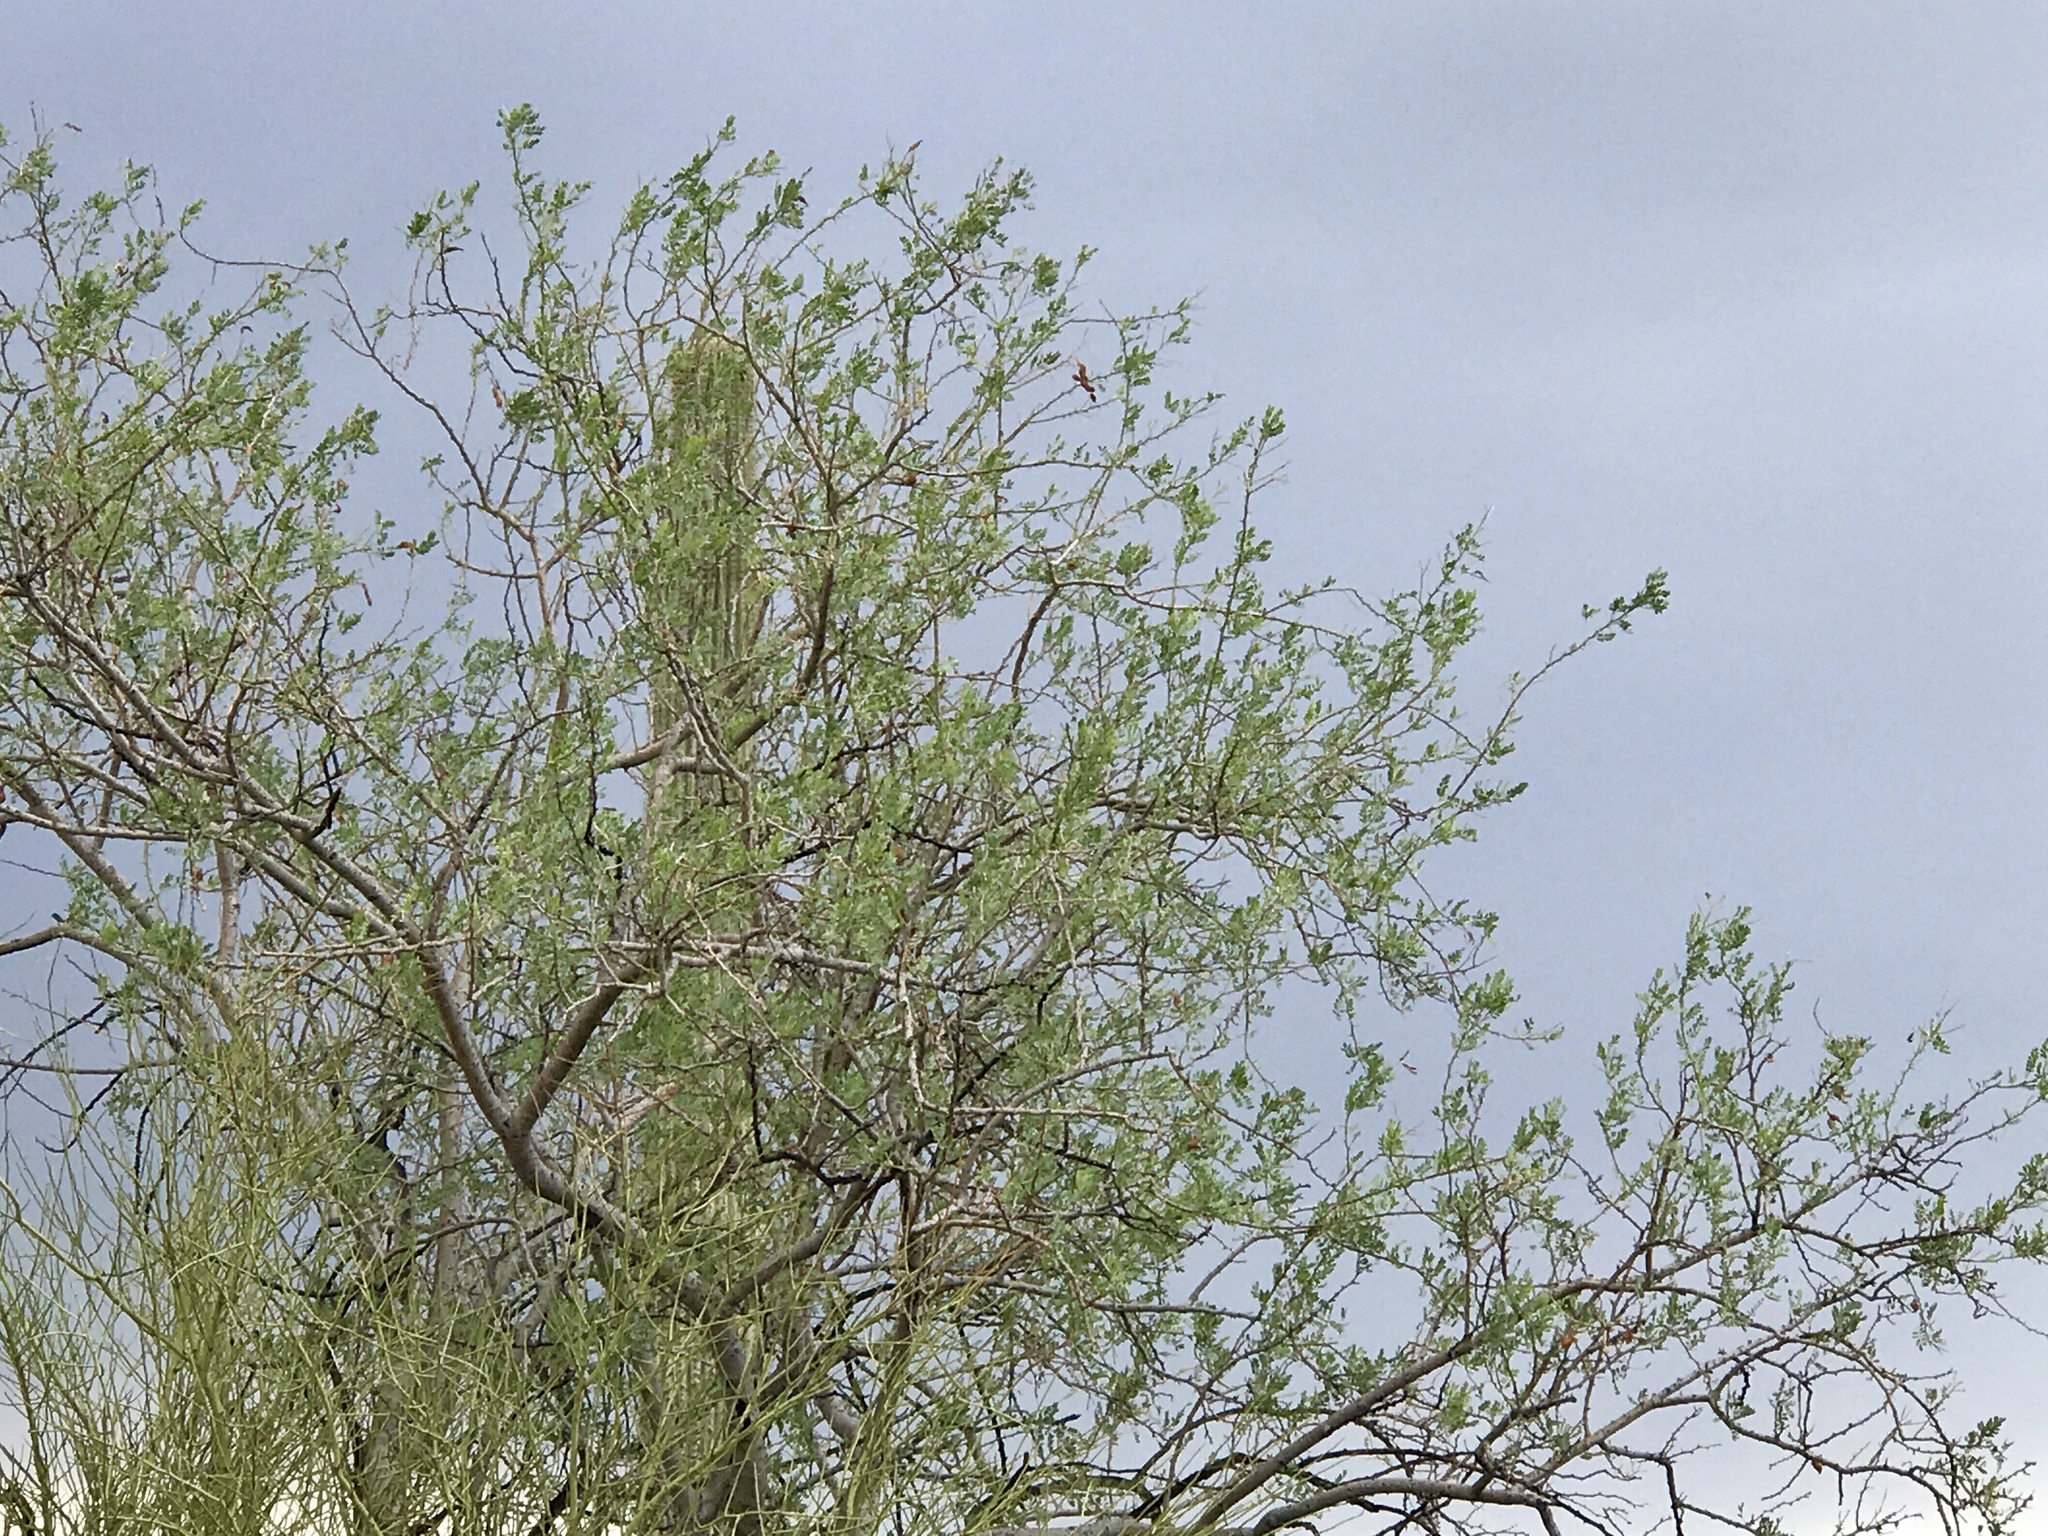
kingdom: Plantae
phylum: Tracheophyta
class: Magnoliopsida
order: Fabales
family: Fabaceae
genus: Olneya
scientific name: Olneya tesota
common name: Desert ironwood
